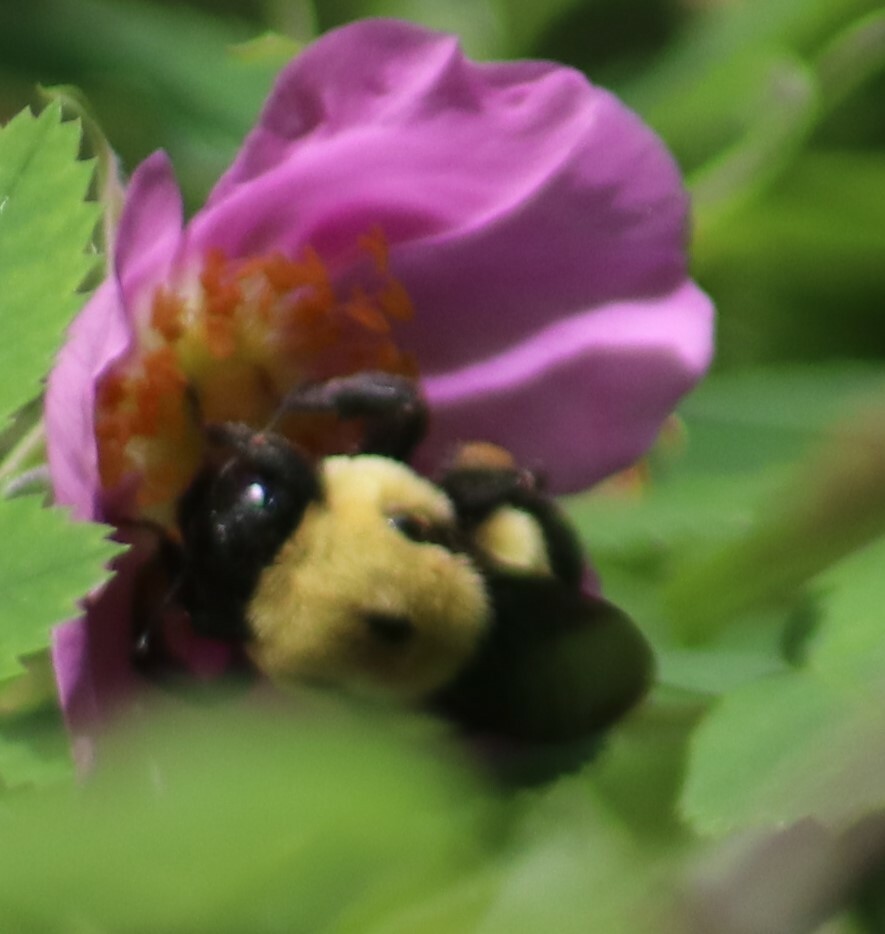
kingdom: Animalia
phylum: Arthropoda
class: Insecta
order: Hymenoptera
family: Apidae
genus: Bombus
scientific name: Bombus griseocollis
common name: Brown-belted bumble bee
